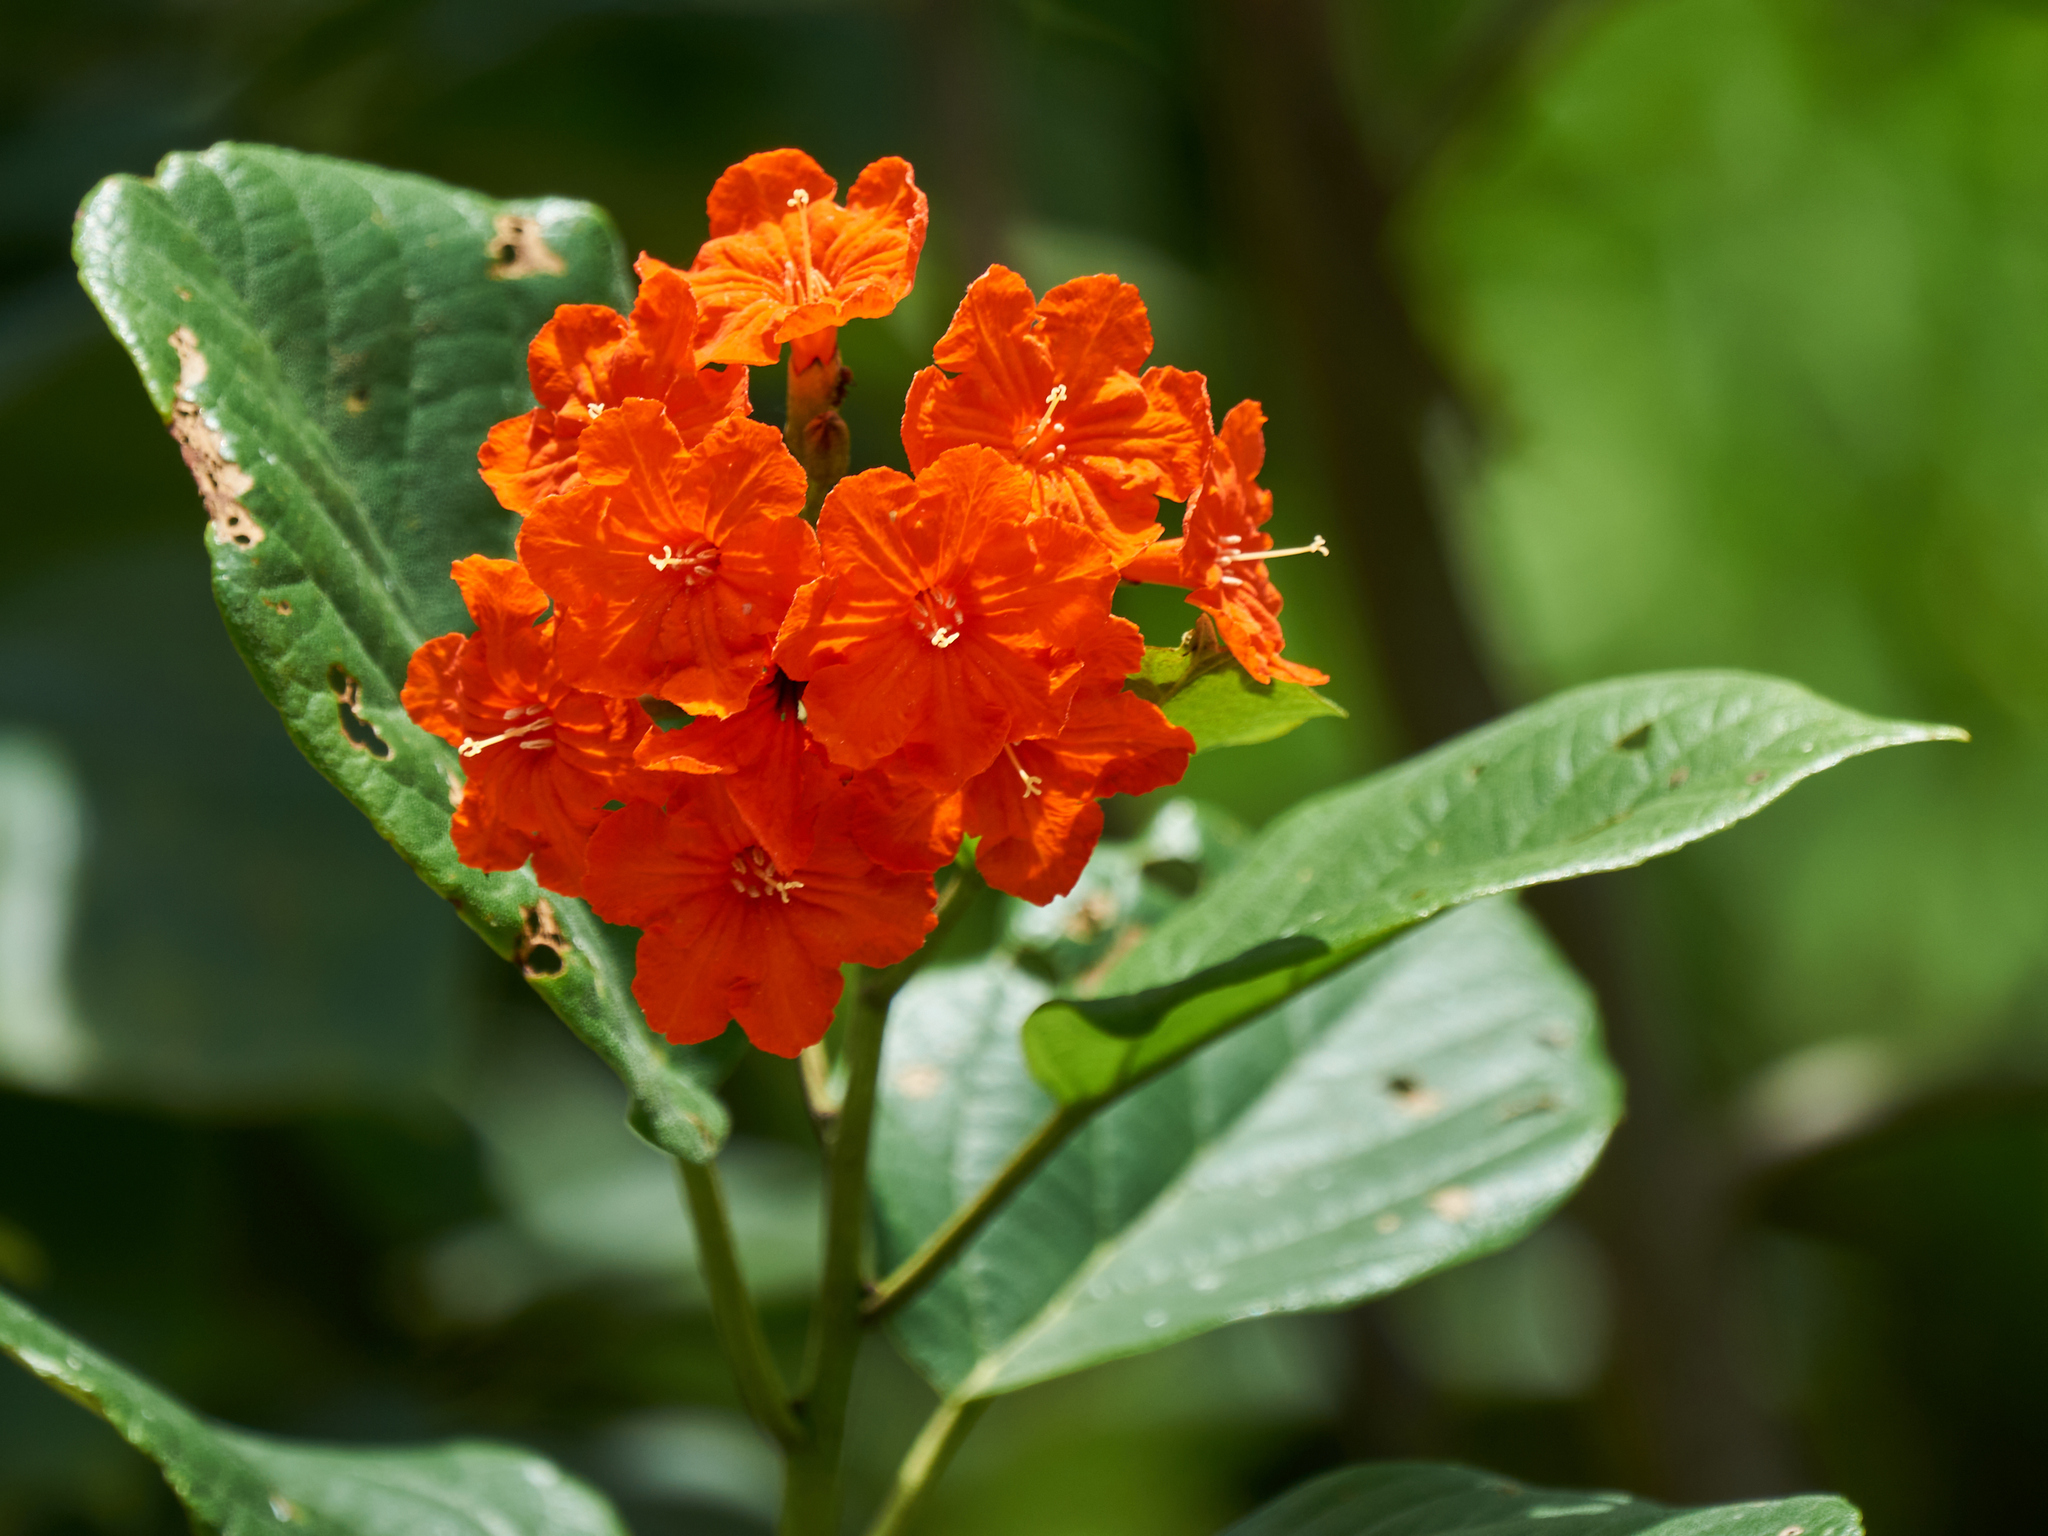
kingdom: Plantae
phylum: Tracheophyta
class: Magnoliopsida
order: Boraginales
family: Cordiaceae
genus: Cordia
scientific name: Cordia sebestena
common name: Largeleaf geigertree
